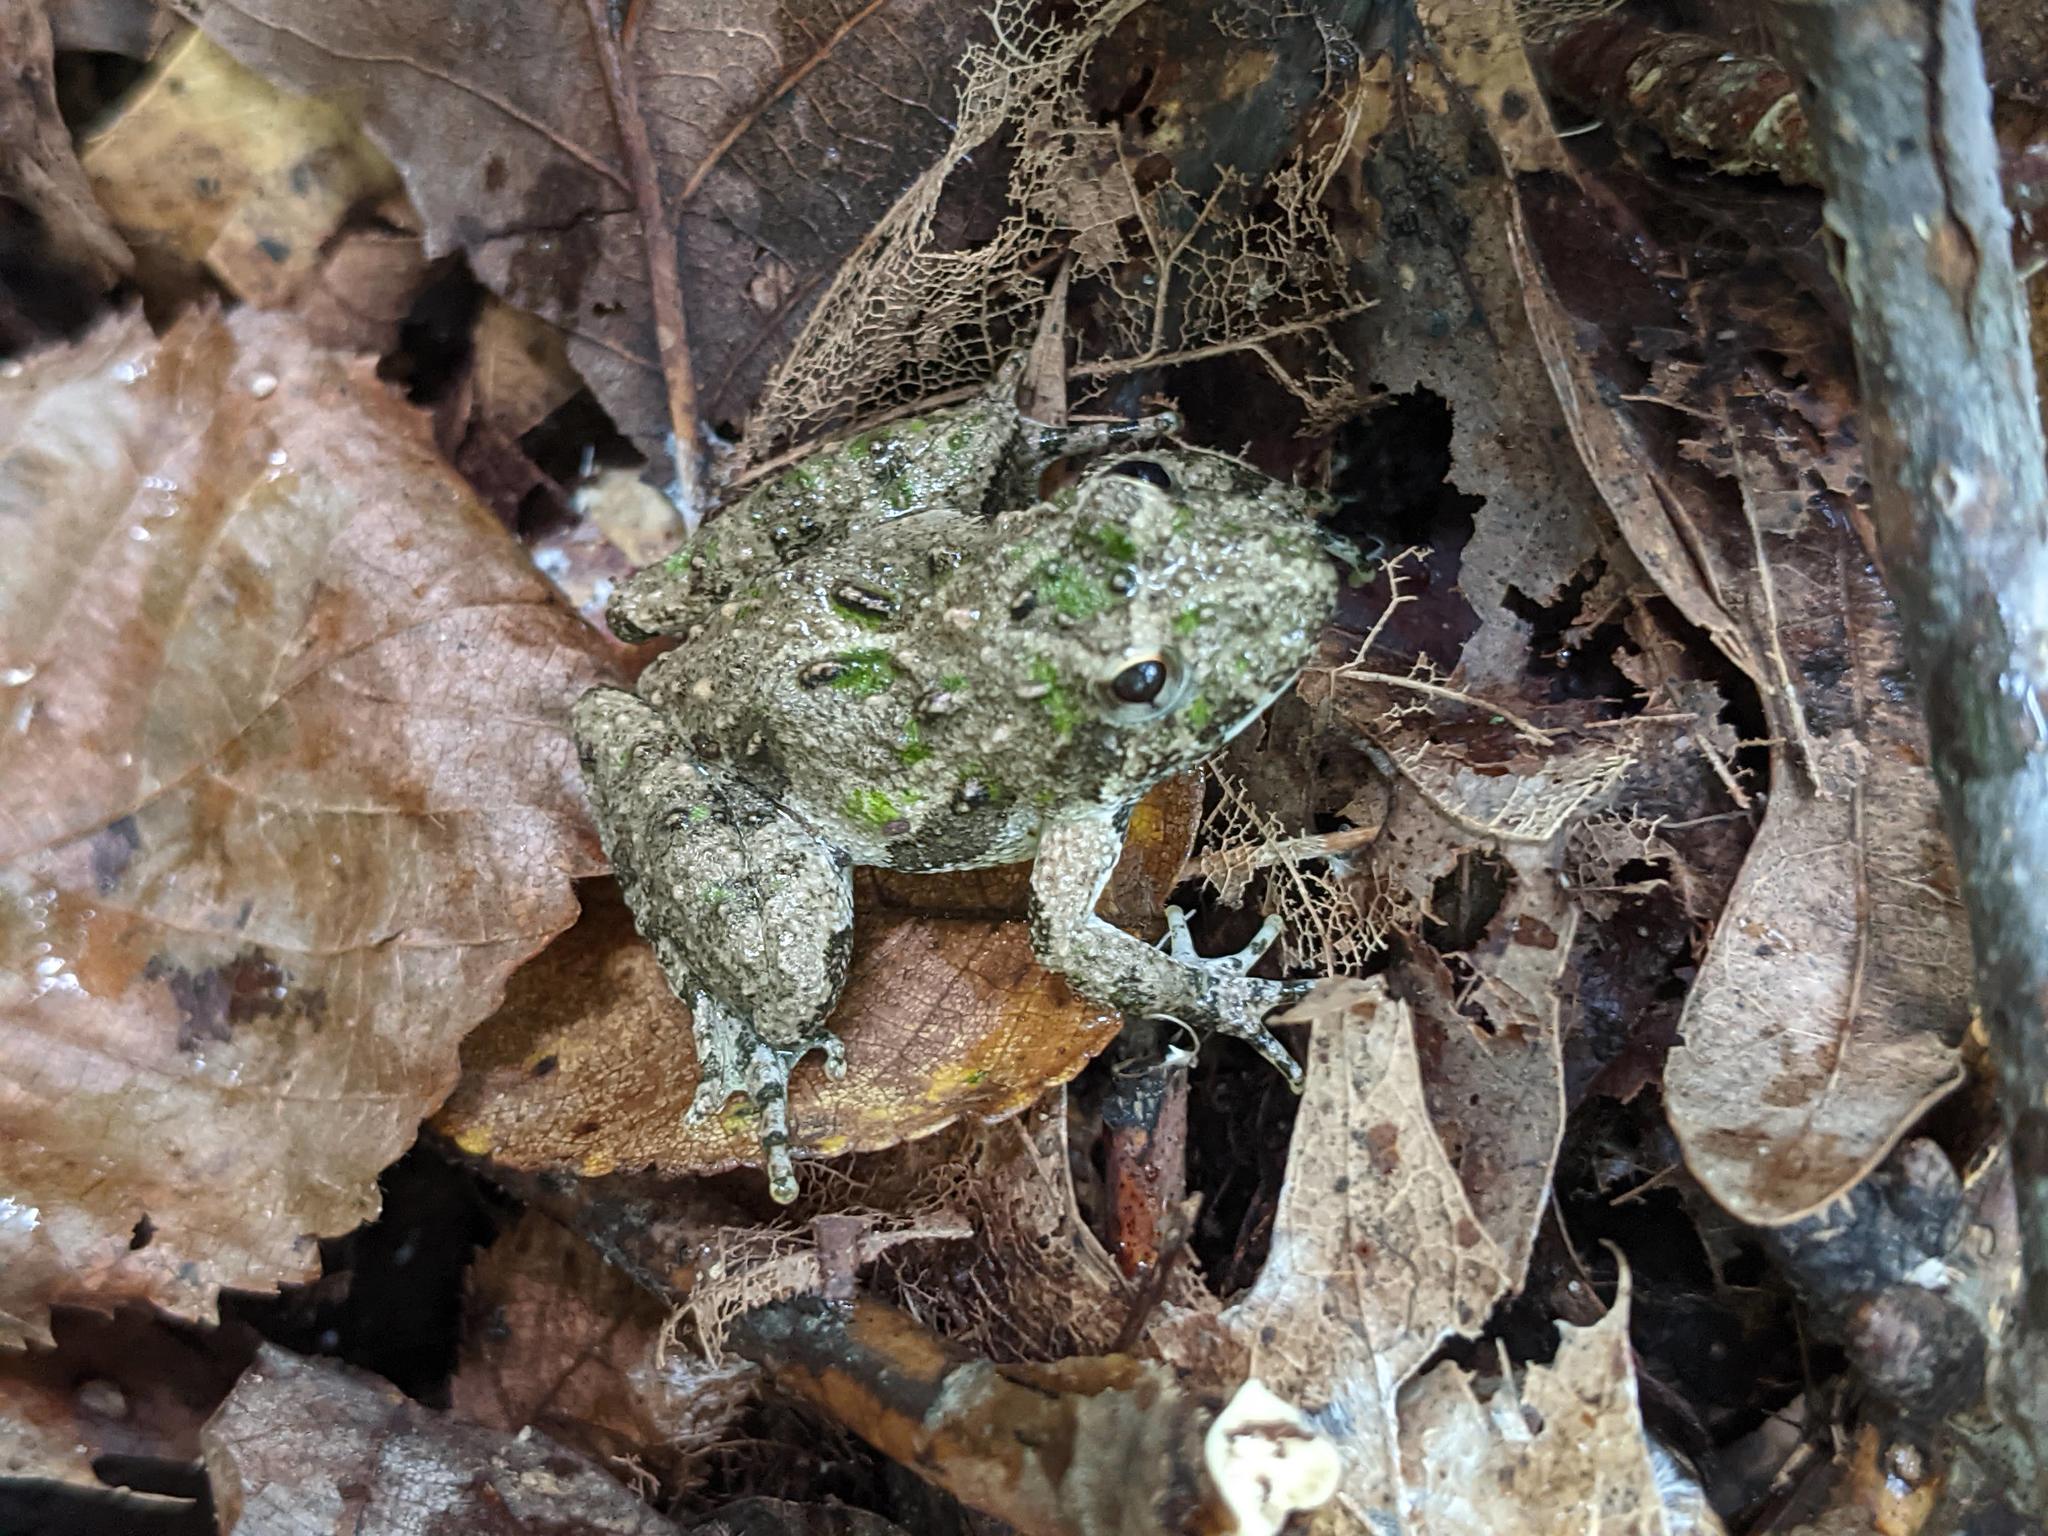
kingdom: Animalia
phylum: Chordata
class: Amphibia
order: Anura
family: Hylidae
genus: Acris
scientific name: Acris crepitans
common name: Northern cricket frog
